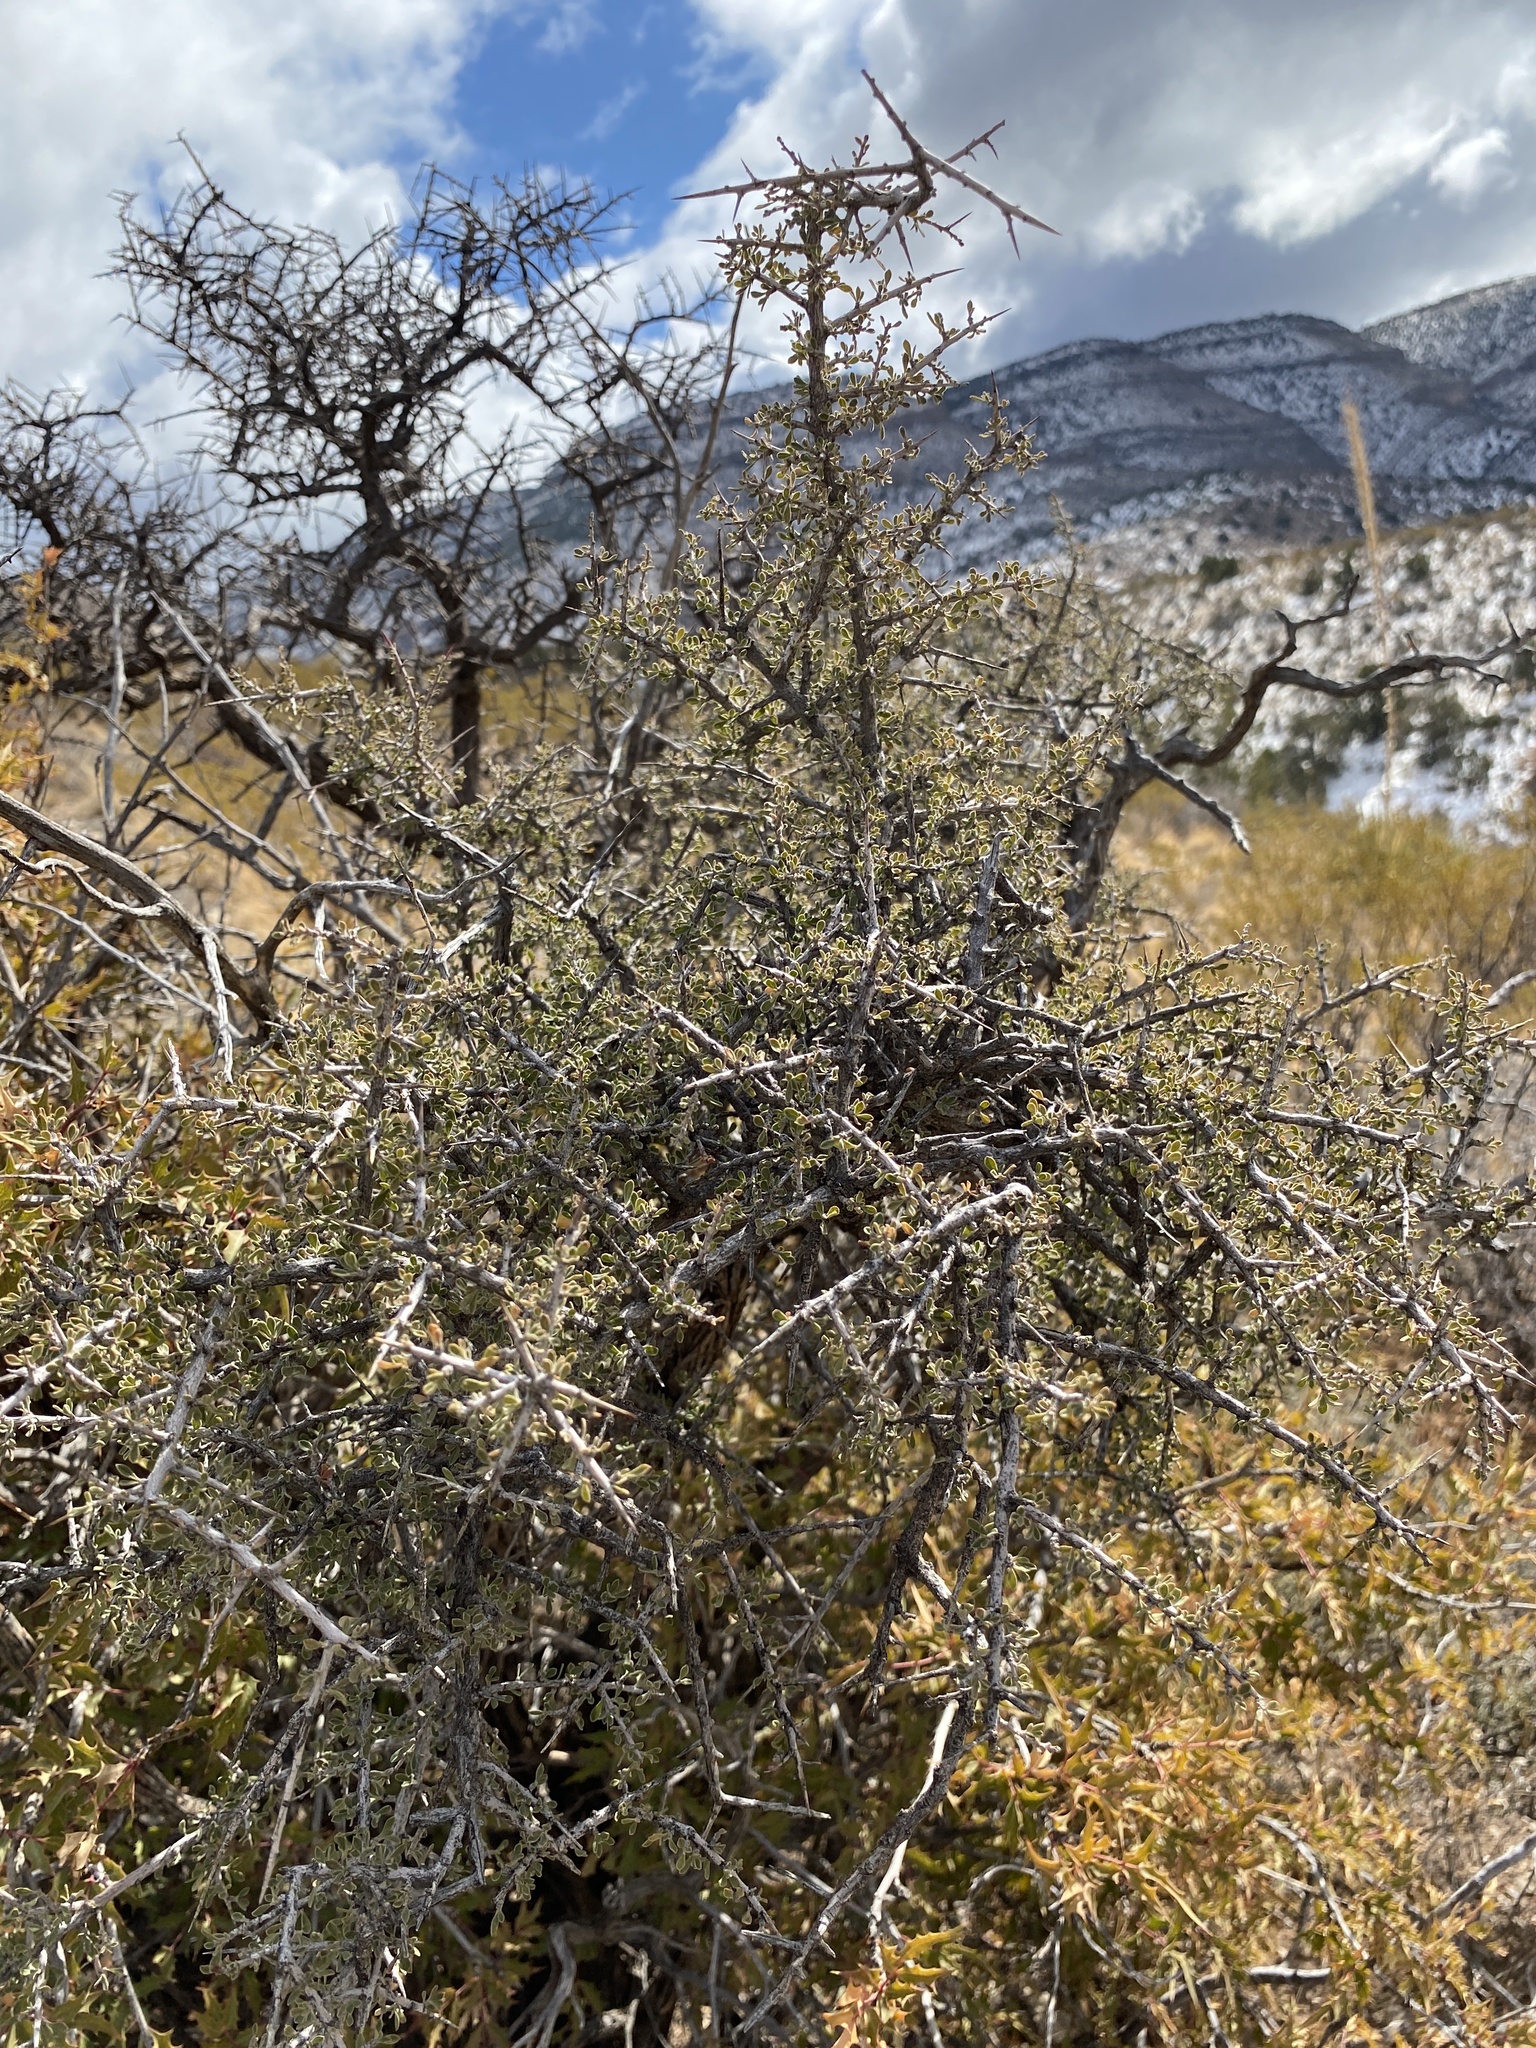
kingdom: Plantae
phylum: Tracheophyta
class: Magnoliopsida
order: Rosales
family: Rhamnaceae
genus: Condalia
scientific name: Condalia warnockii
